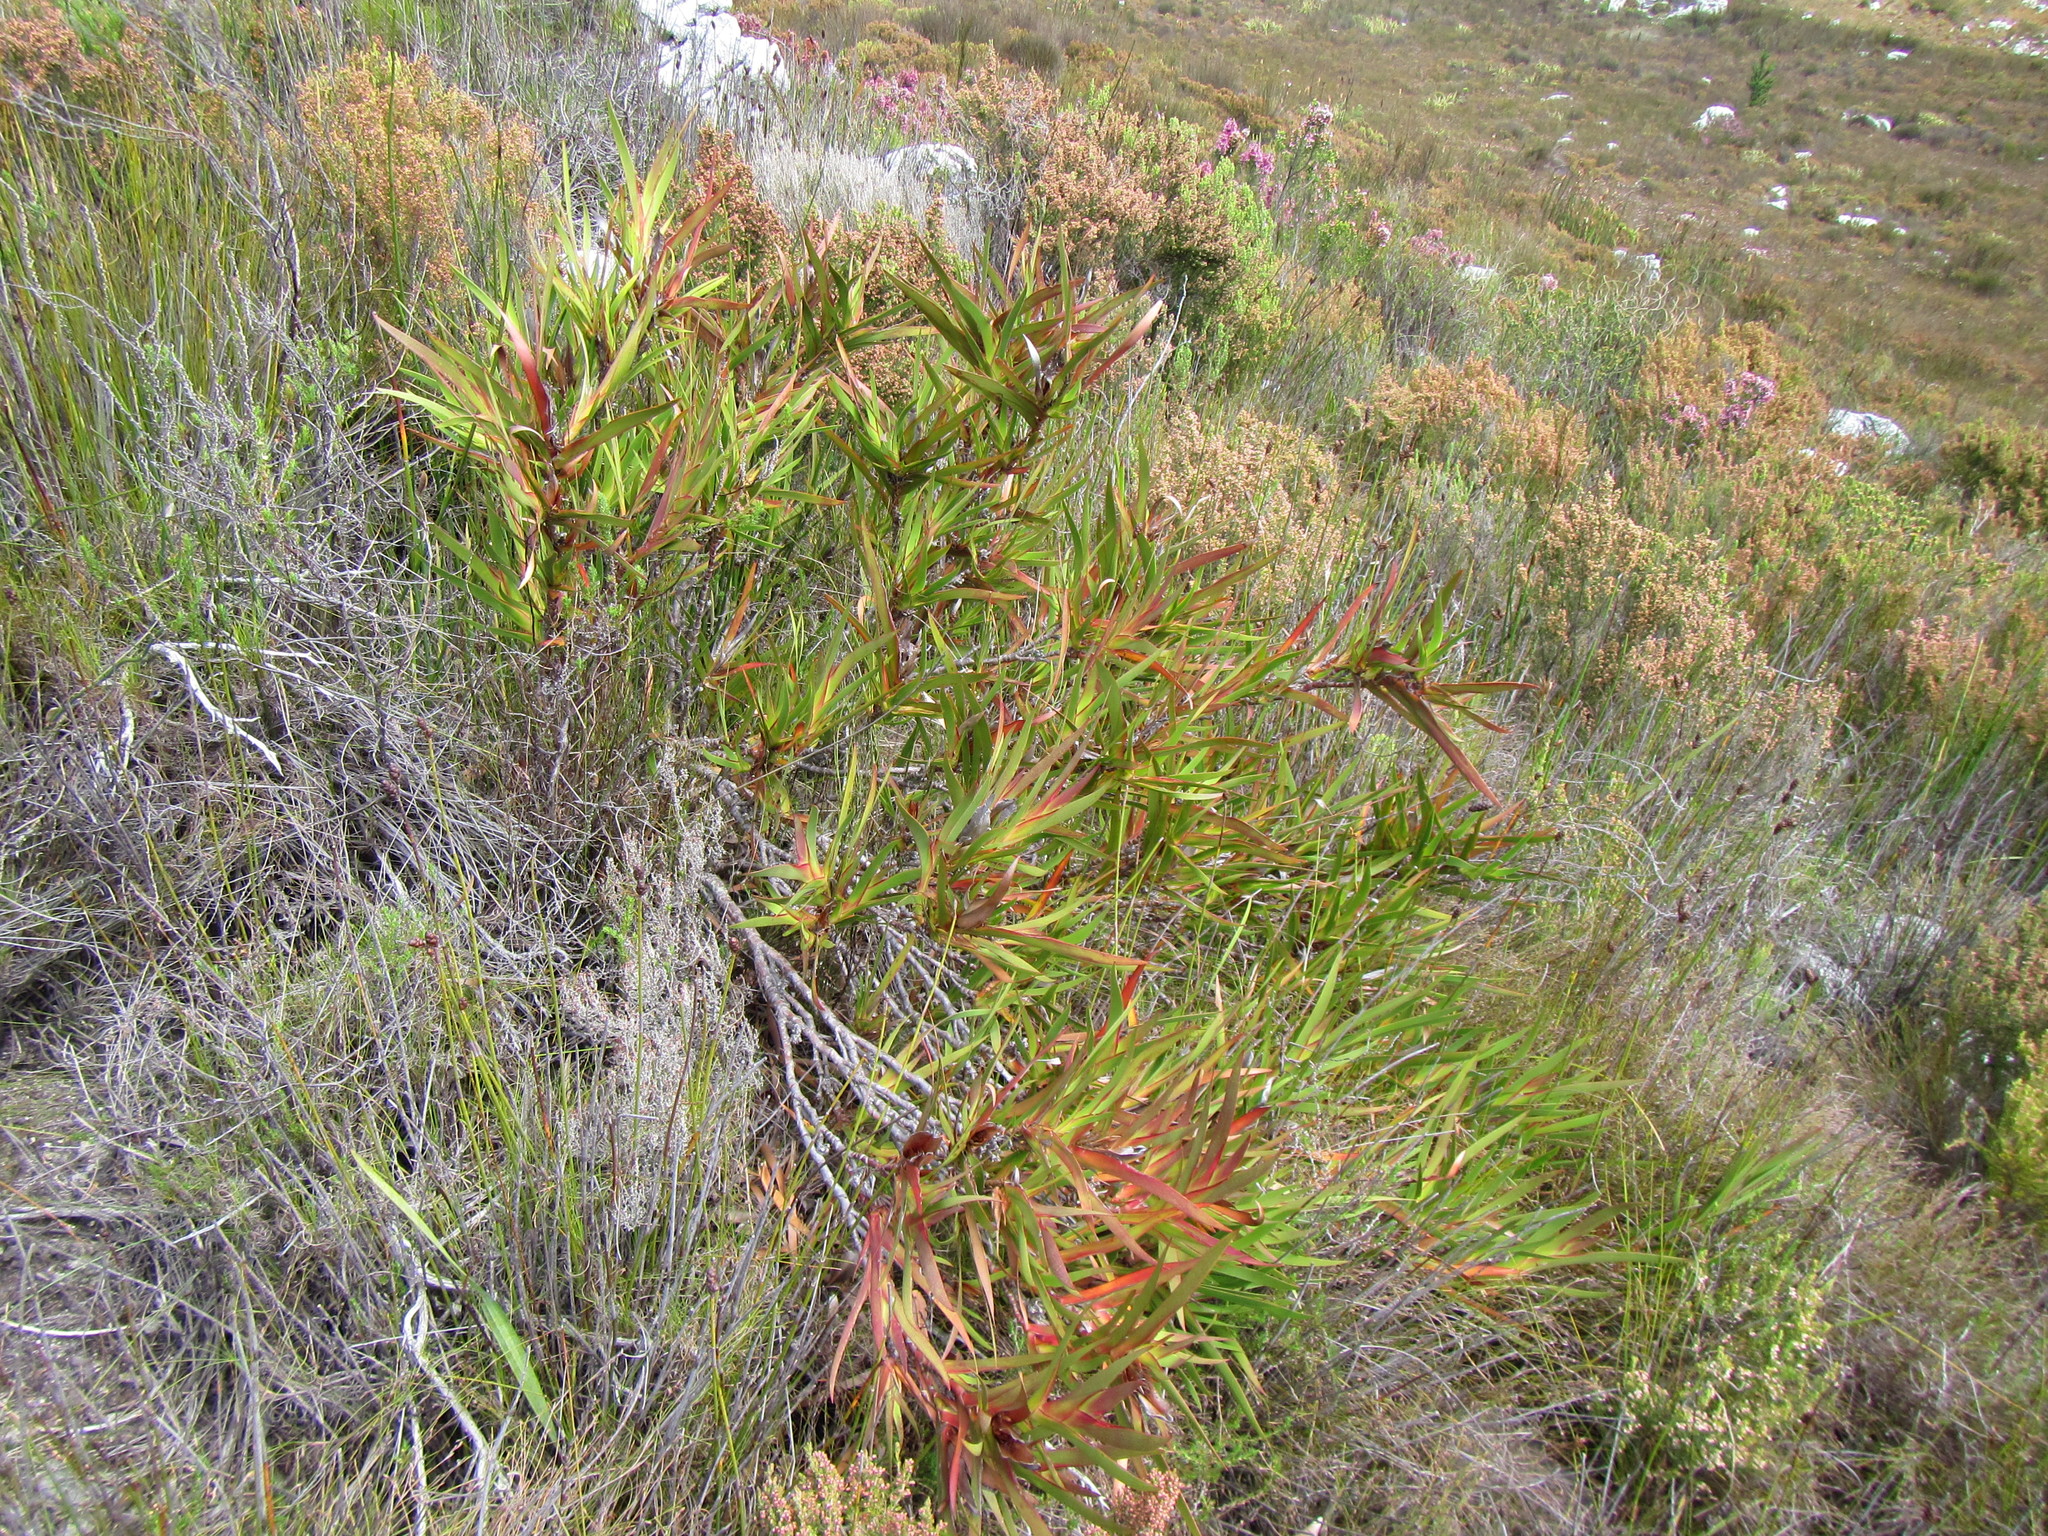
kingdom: Plantae
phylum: Tracheophyta
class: Liliopsida
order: Asparagales
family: Iridaceae
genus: Klattia
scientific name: Klattia stokoei
